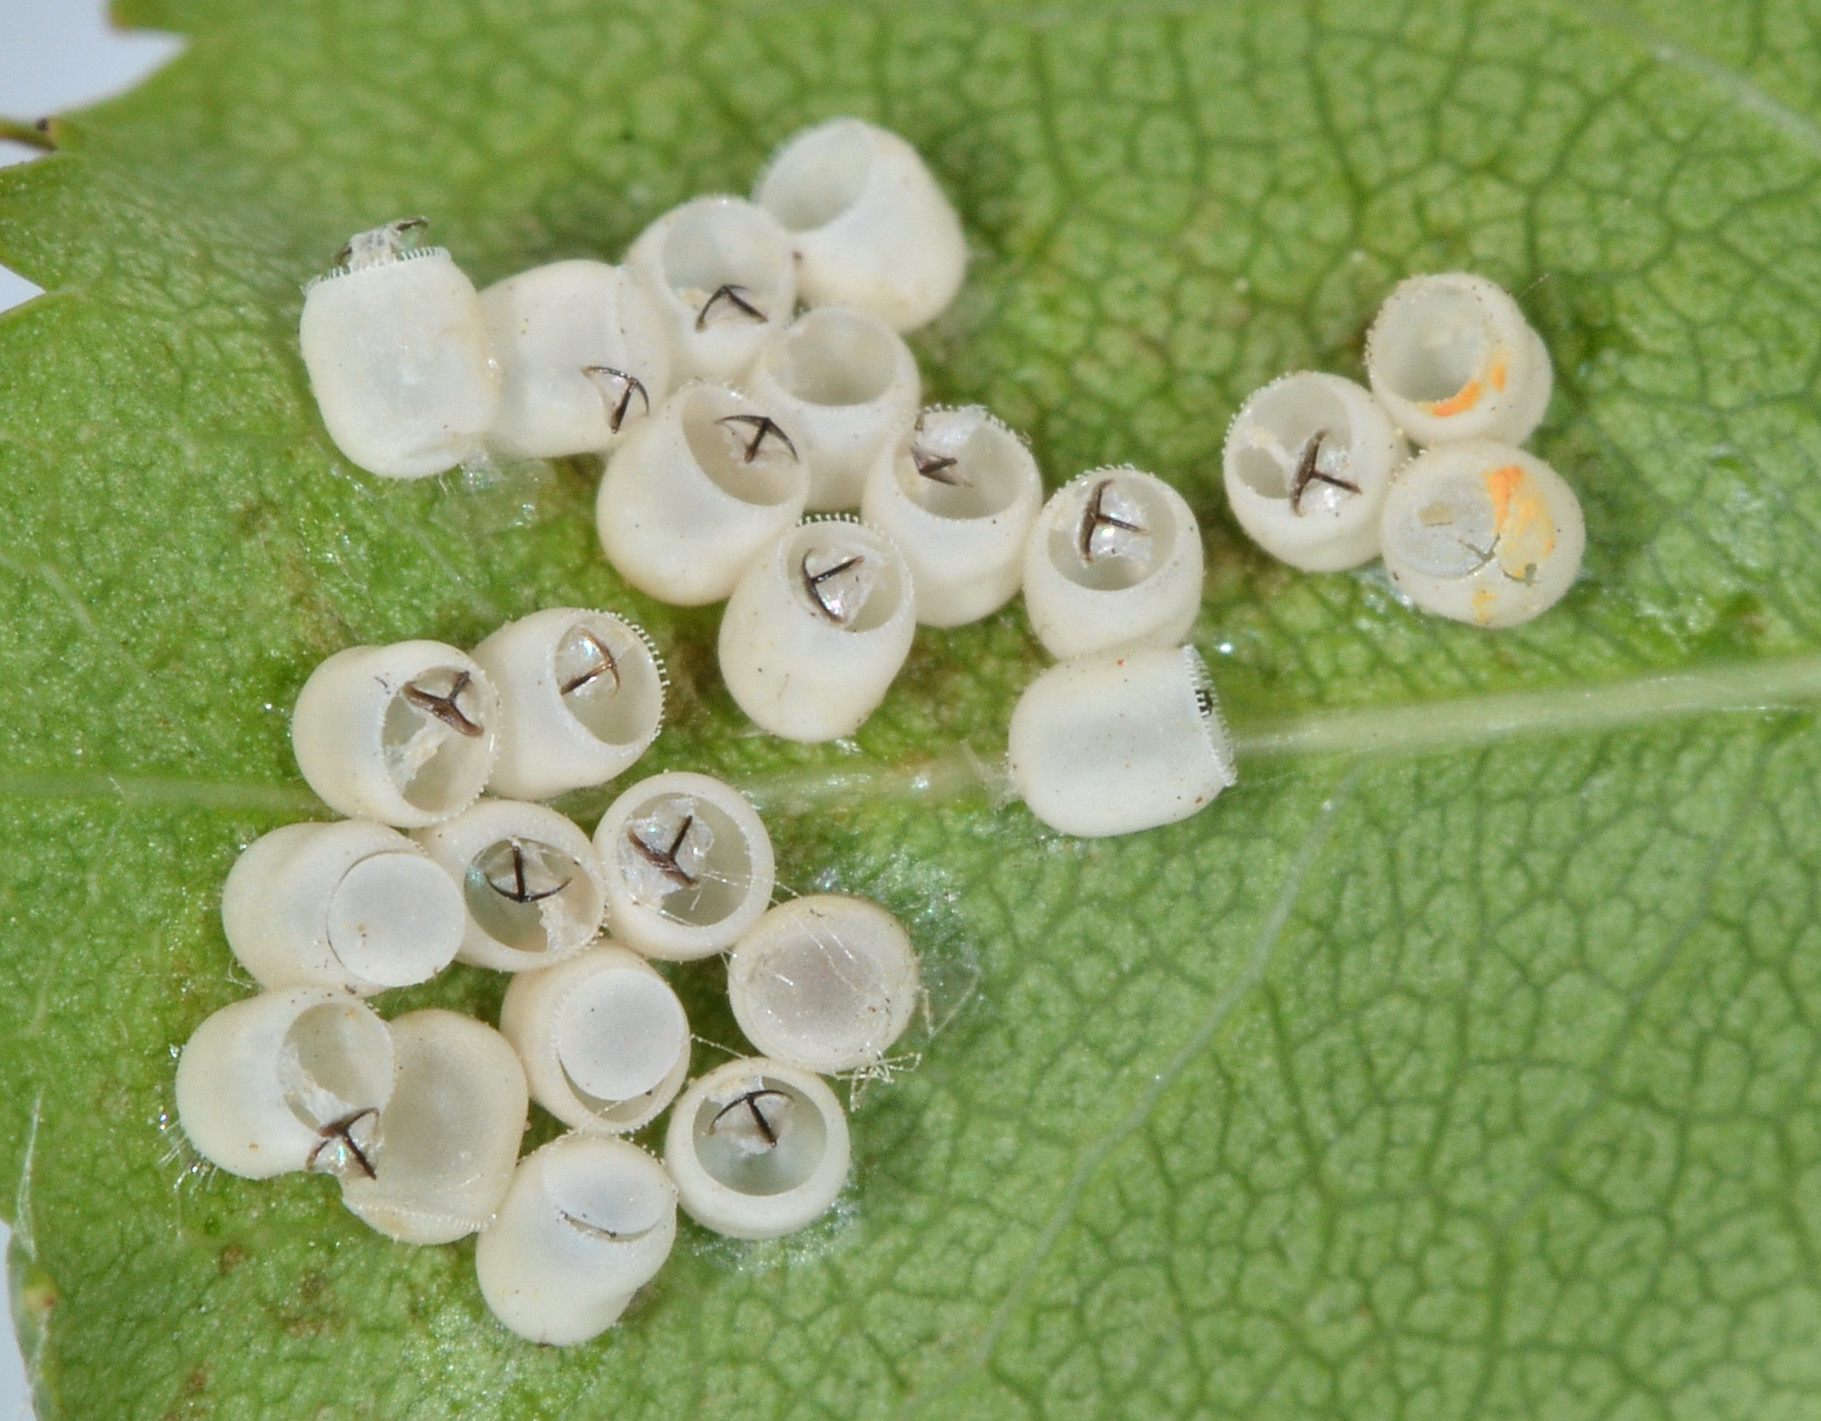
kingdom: Animalia
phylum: Arthropoda
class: Insecta
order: Hemiptera
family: Pentatomidae
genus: Chinavia
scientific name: Chinavia hilaris
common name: Green stink bug
